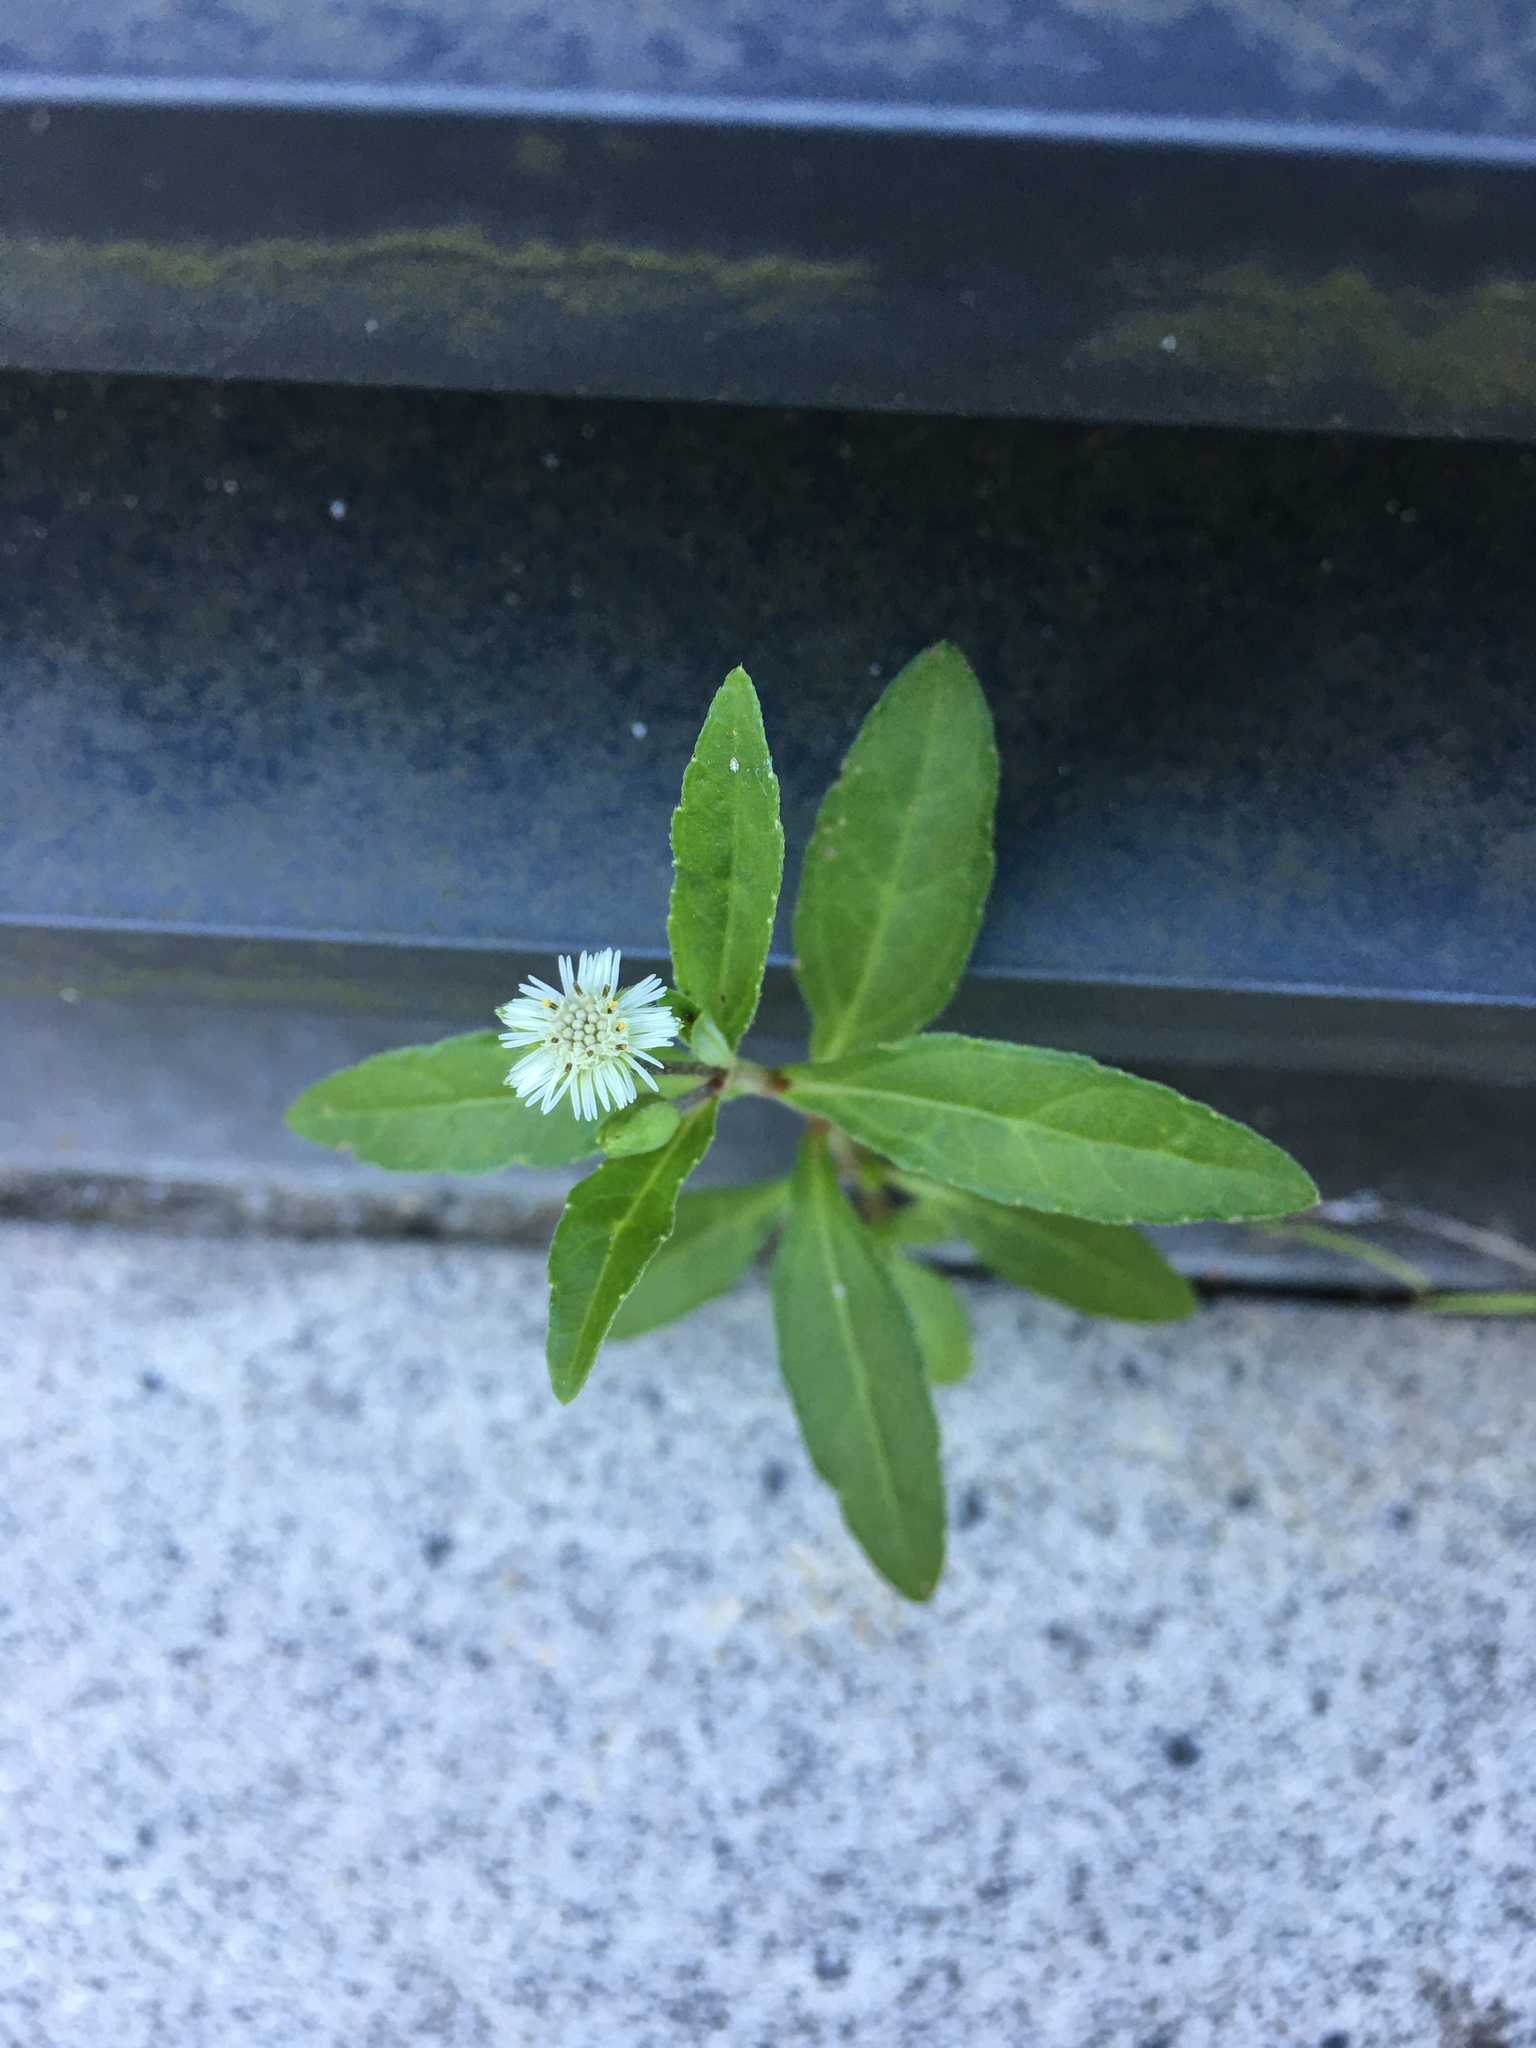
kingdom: Plantae
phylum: Tracheophyta
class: Magnoliopsida
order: Asterales
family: Asteraceae
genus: Eclipta
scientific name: Eclipta prostrata
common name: False daisy
